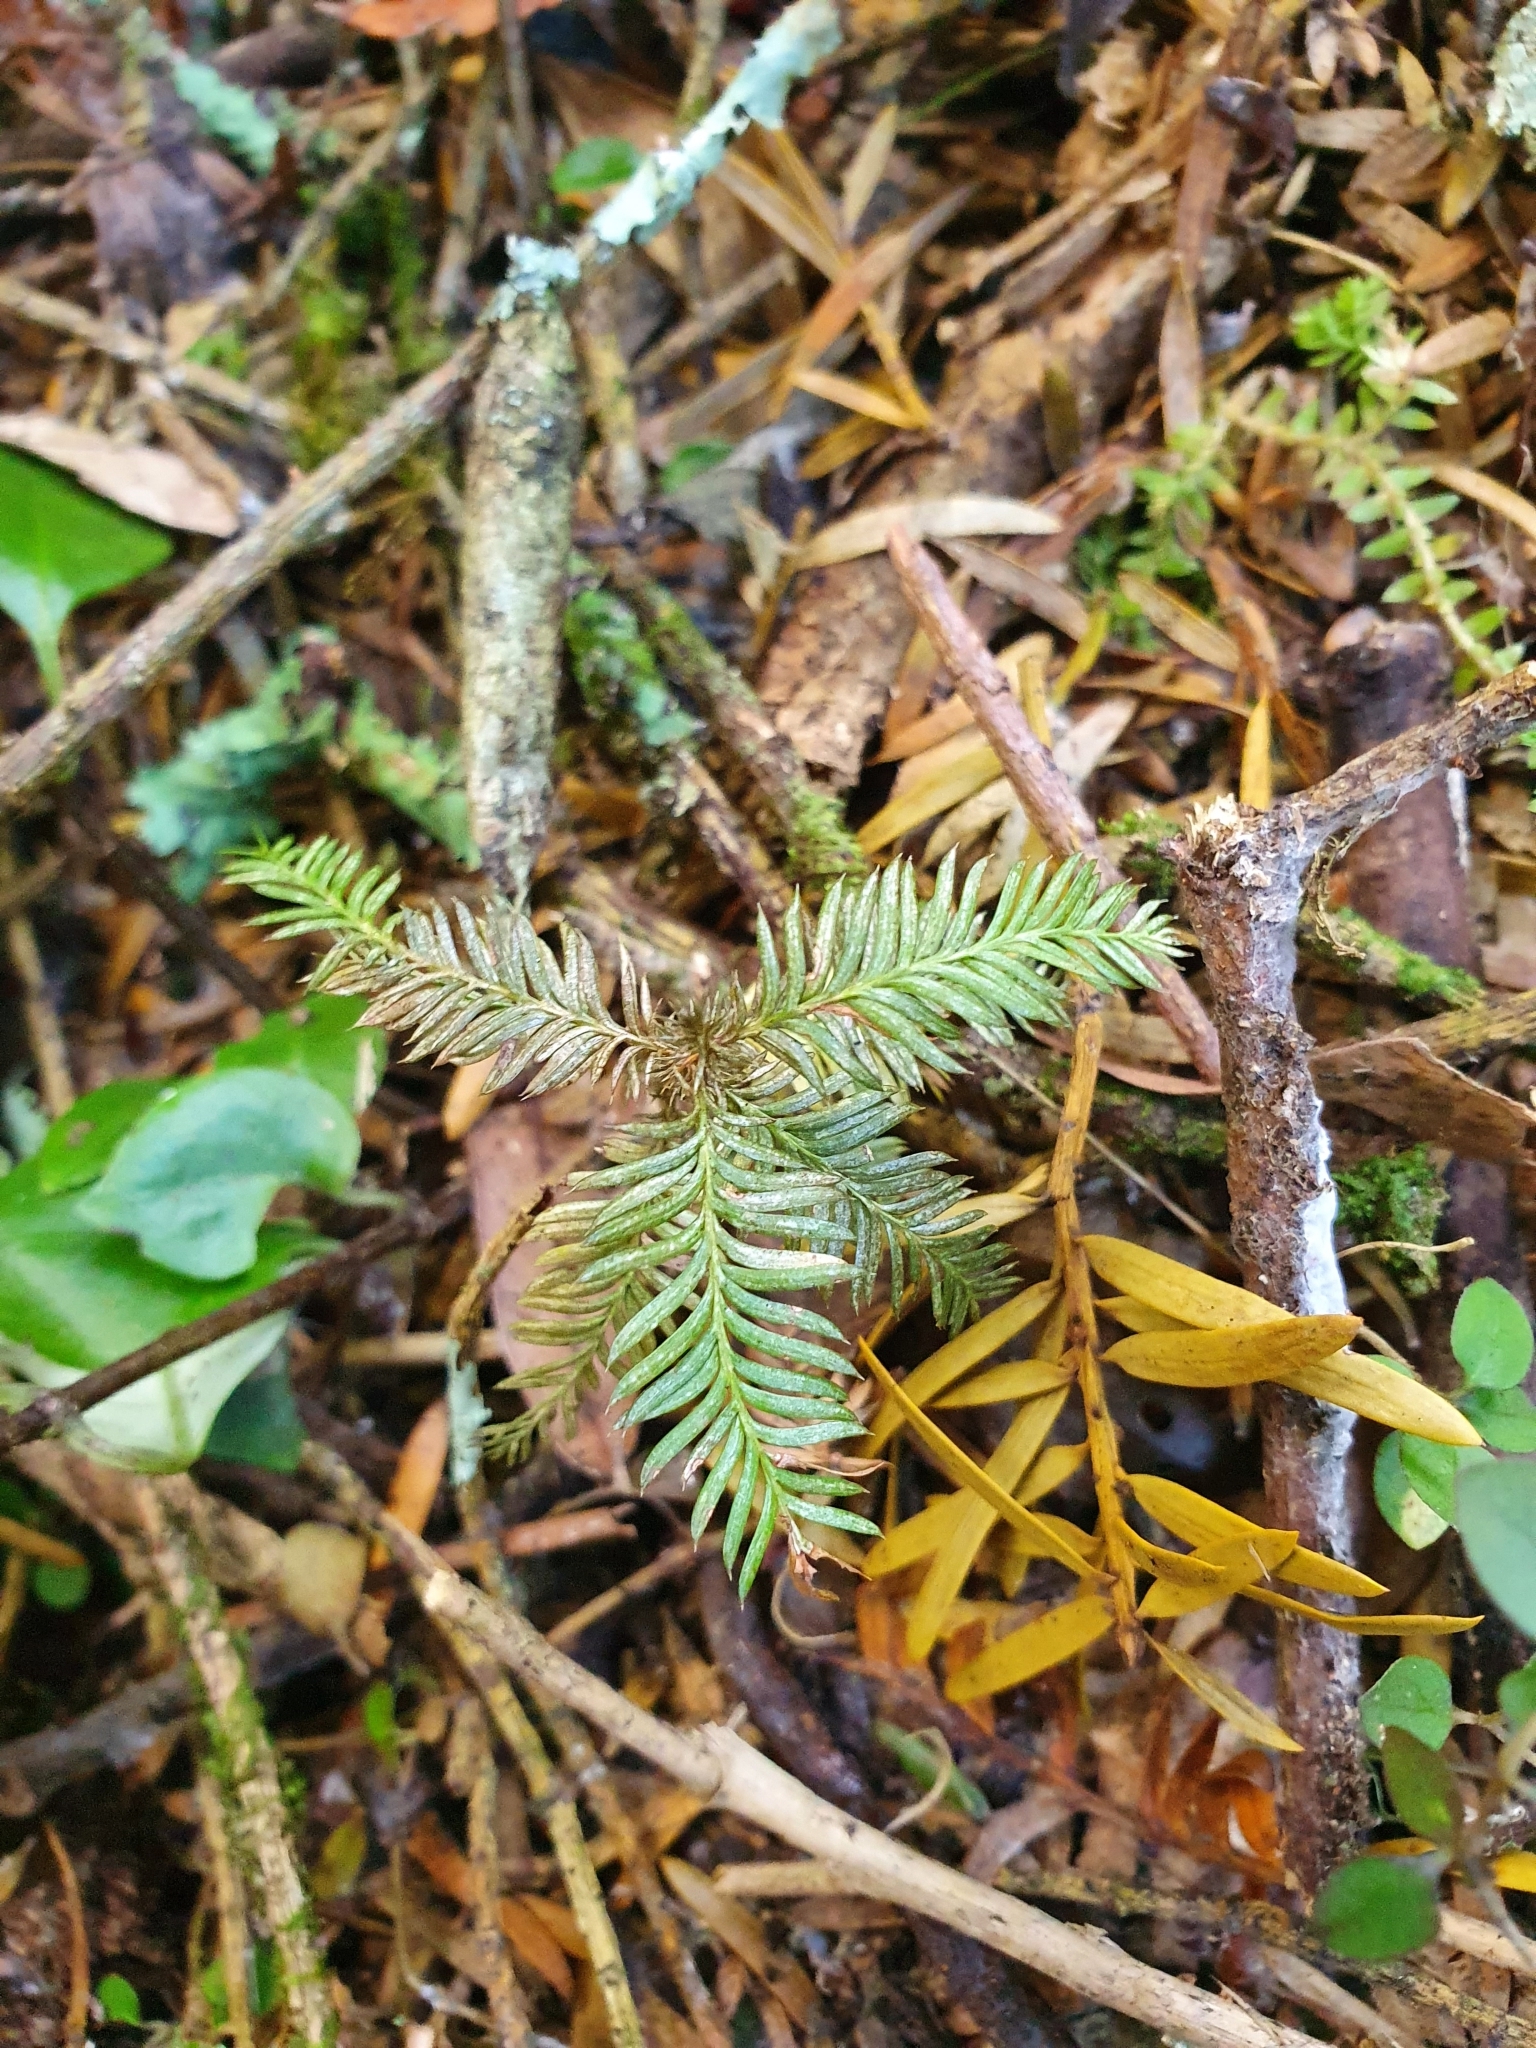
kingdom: Plantae
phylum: Tracheophyta
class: Pinopsida
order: Pinales
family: Podocarpaceae
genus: Dacrycarpus
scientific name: Dacrycarpus dacrydioides
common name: White pine
